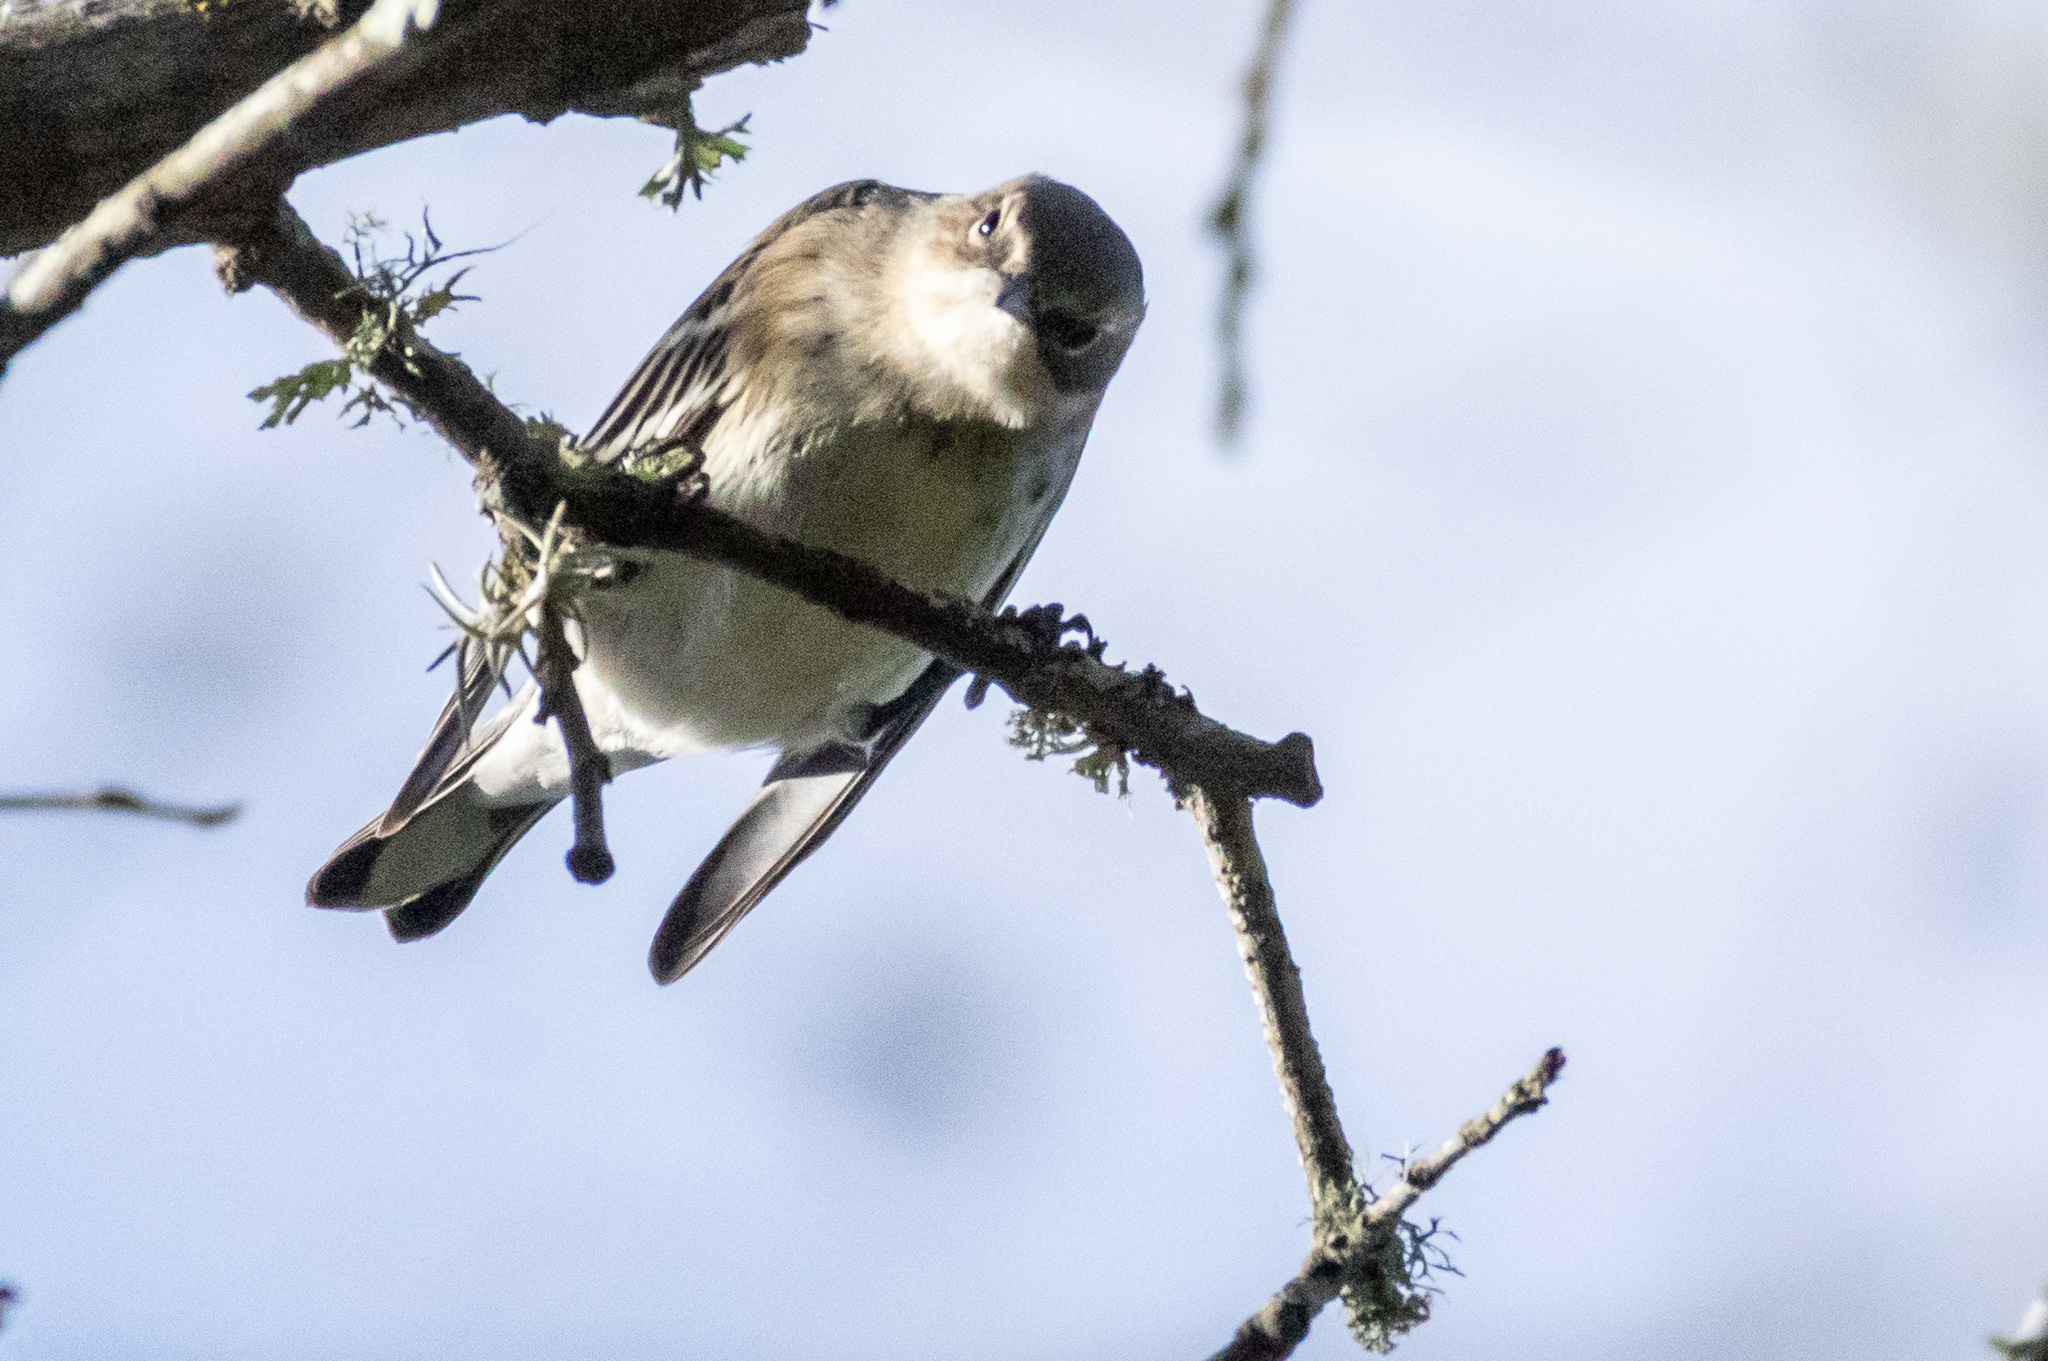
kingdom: Animalia
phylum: Chordata
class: Aves
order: Passeriformes
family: Parulidae
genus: Setophaga
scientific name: Setophaga coronata
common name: Myrtle warbler
